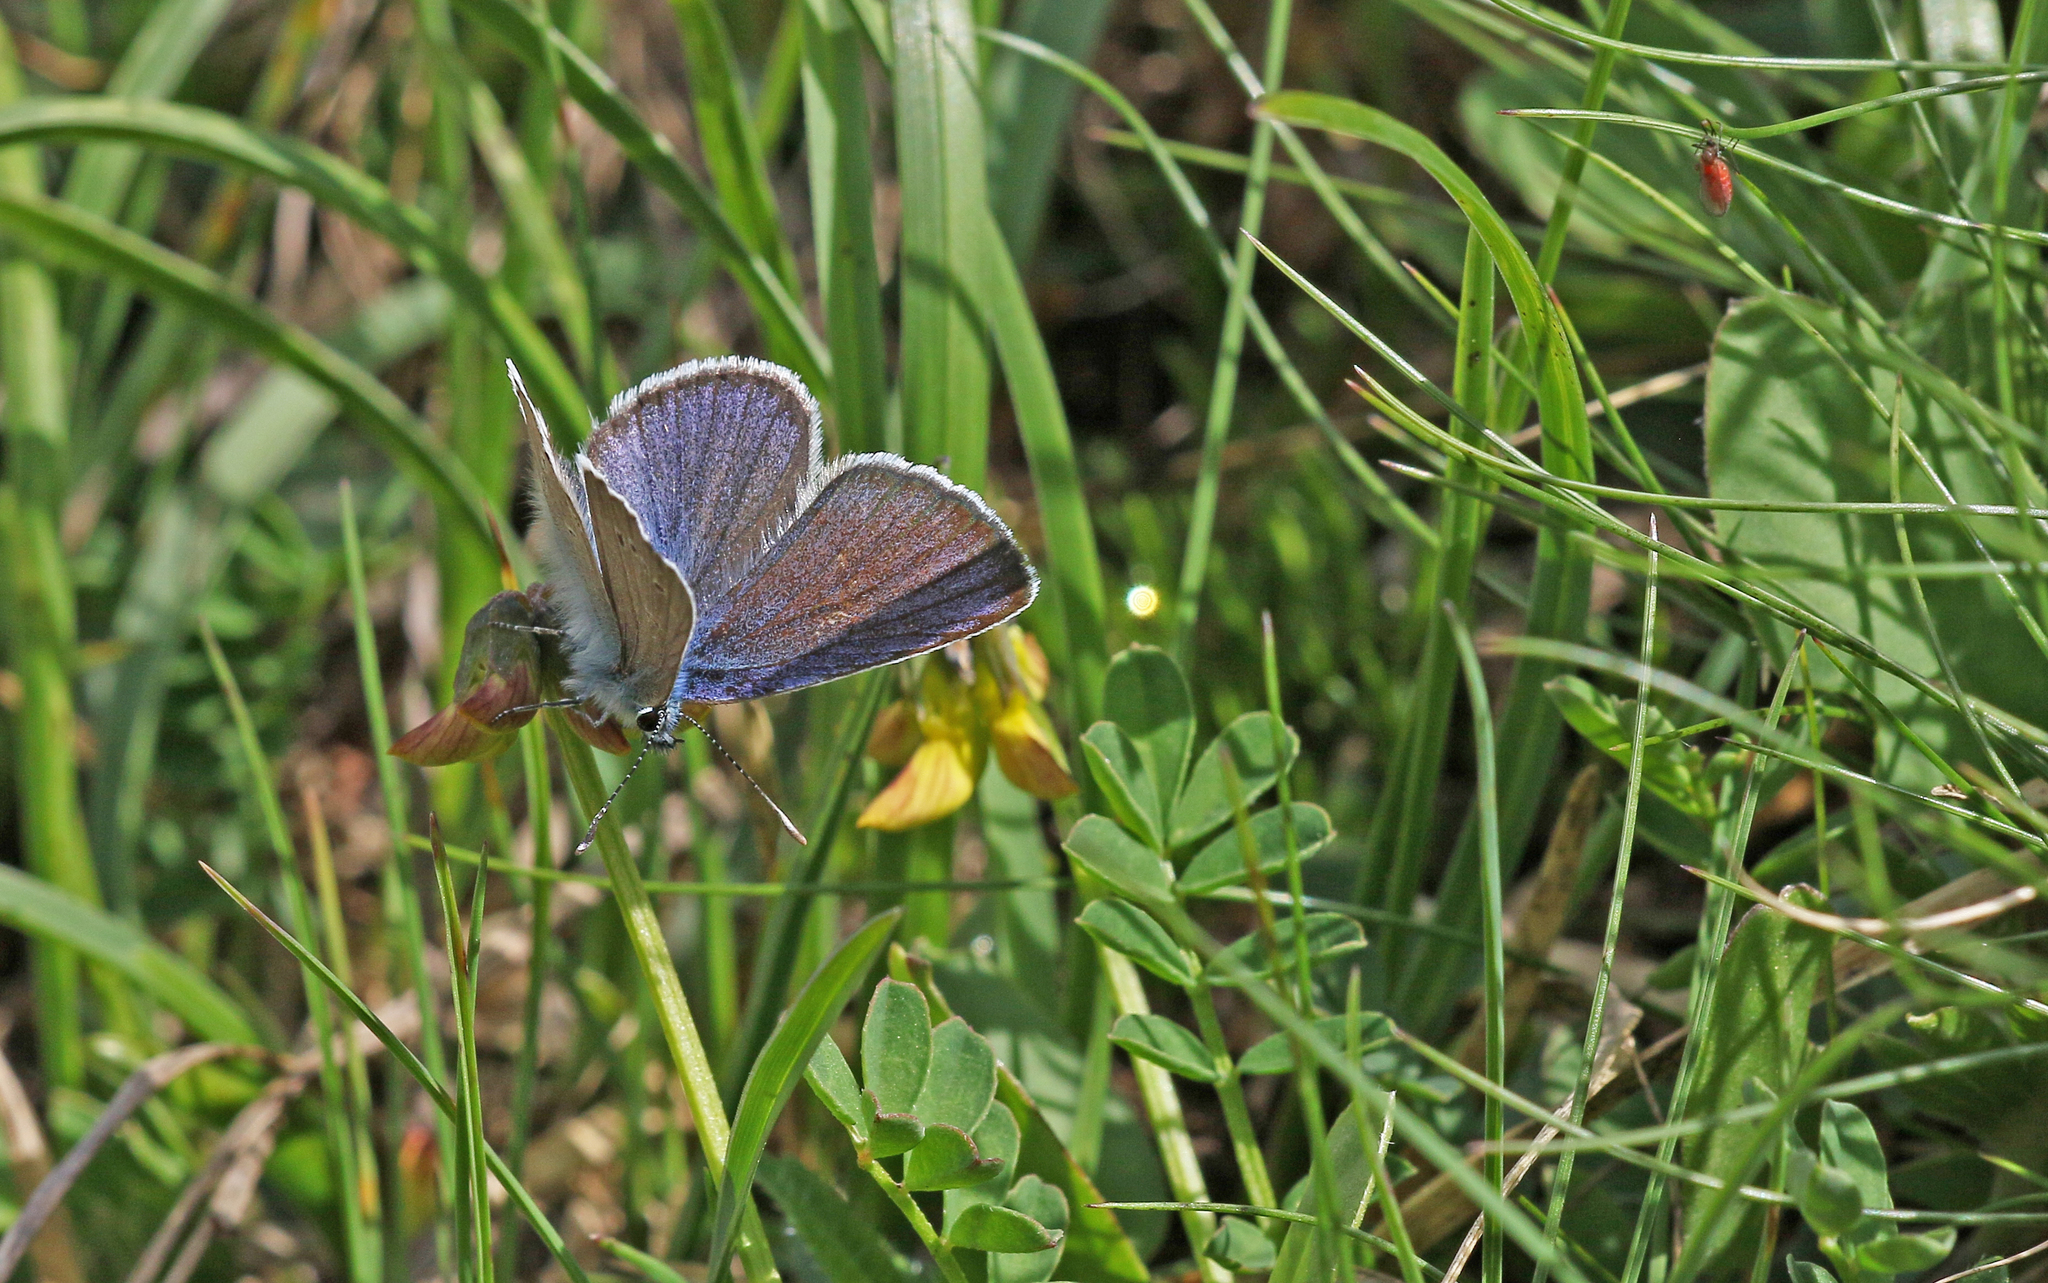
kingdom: Animalia
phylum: Arthropoda
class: Insecta
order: Lepidoptera
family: Lycaenidae
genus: Cyaniris
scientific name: Cyaniris semiargus
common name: Mazarine blue
